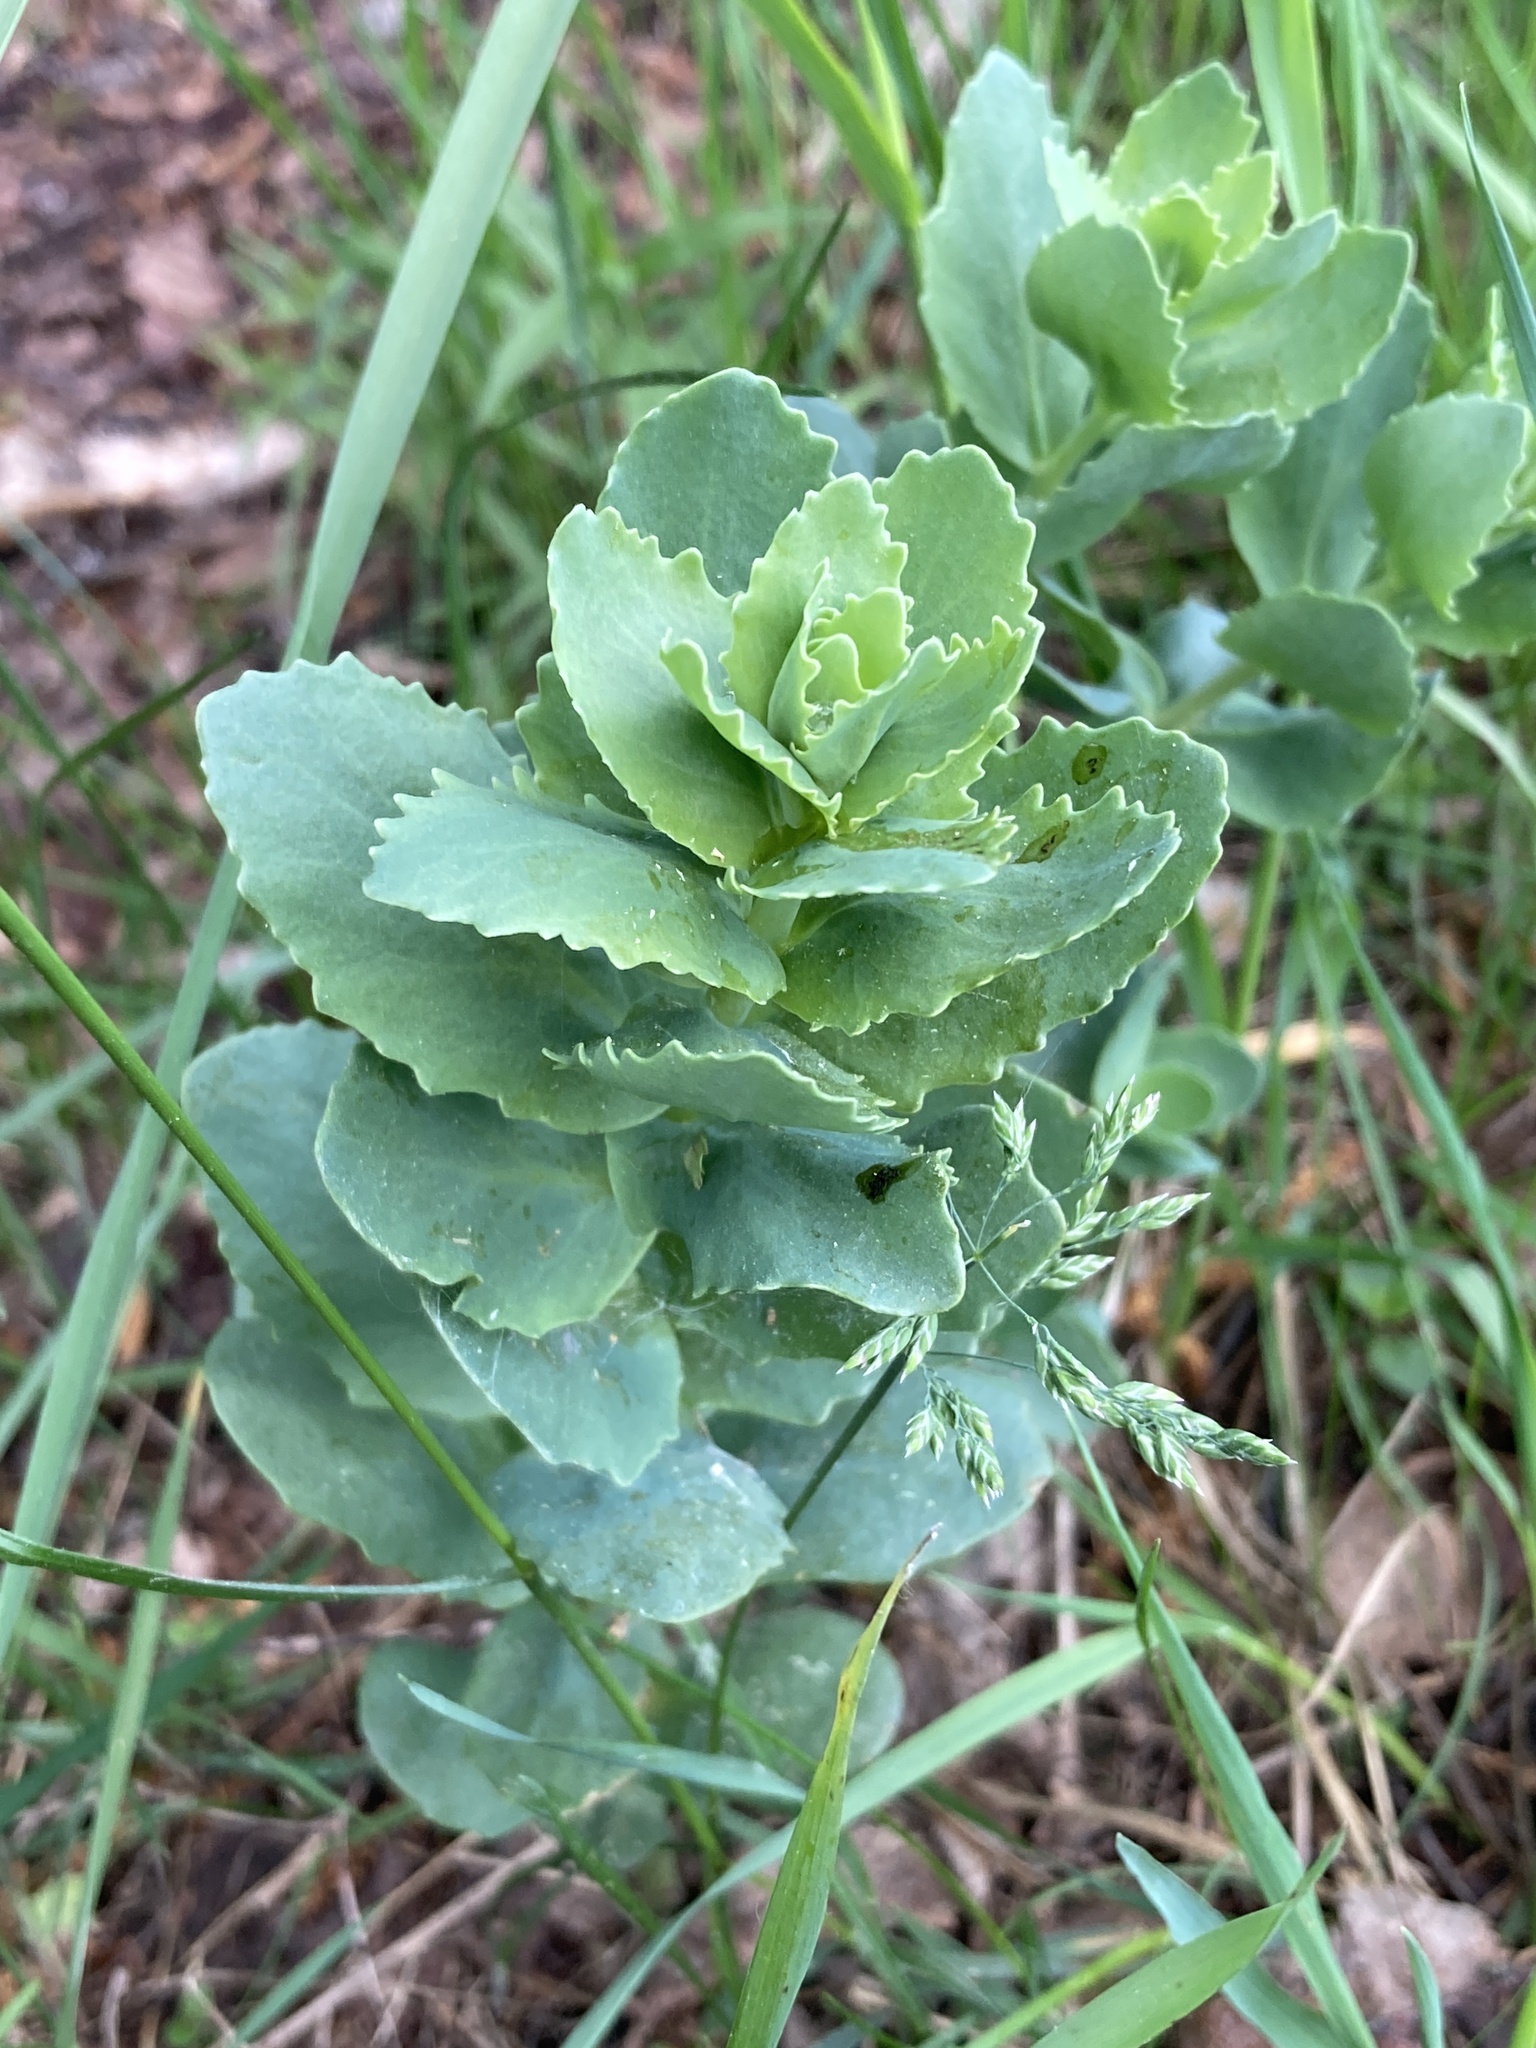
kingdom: Plantae
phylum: Tracheophyta
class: Magnoliopsida
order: Saxifragales
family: Crassulaceae
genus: Hylotelephium
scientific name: Hylotelephium telephium
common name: Live-forever
